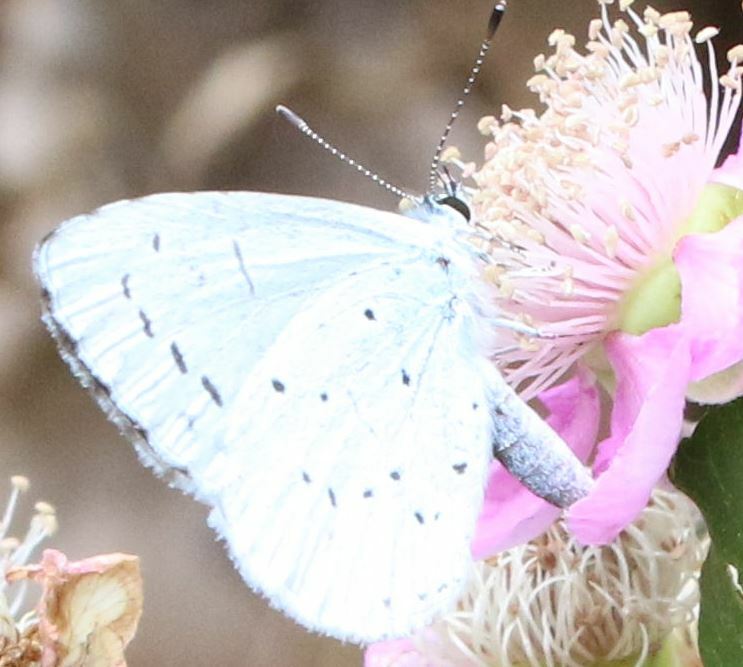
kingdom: Animalia
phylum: Arthropoda
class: Insecta
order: Lepidoptera
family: Lycaenidae
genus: Celastrina
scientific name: Celastrina argiolus
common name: Holly blue
